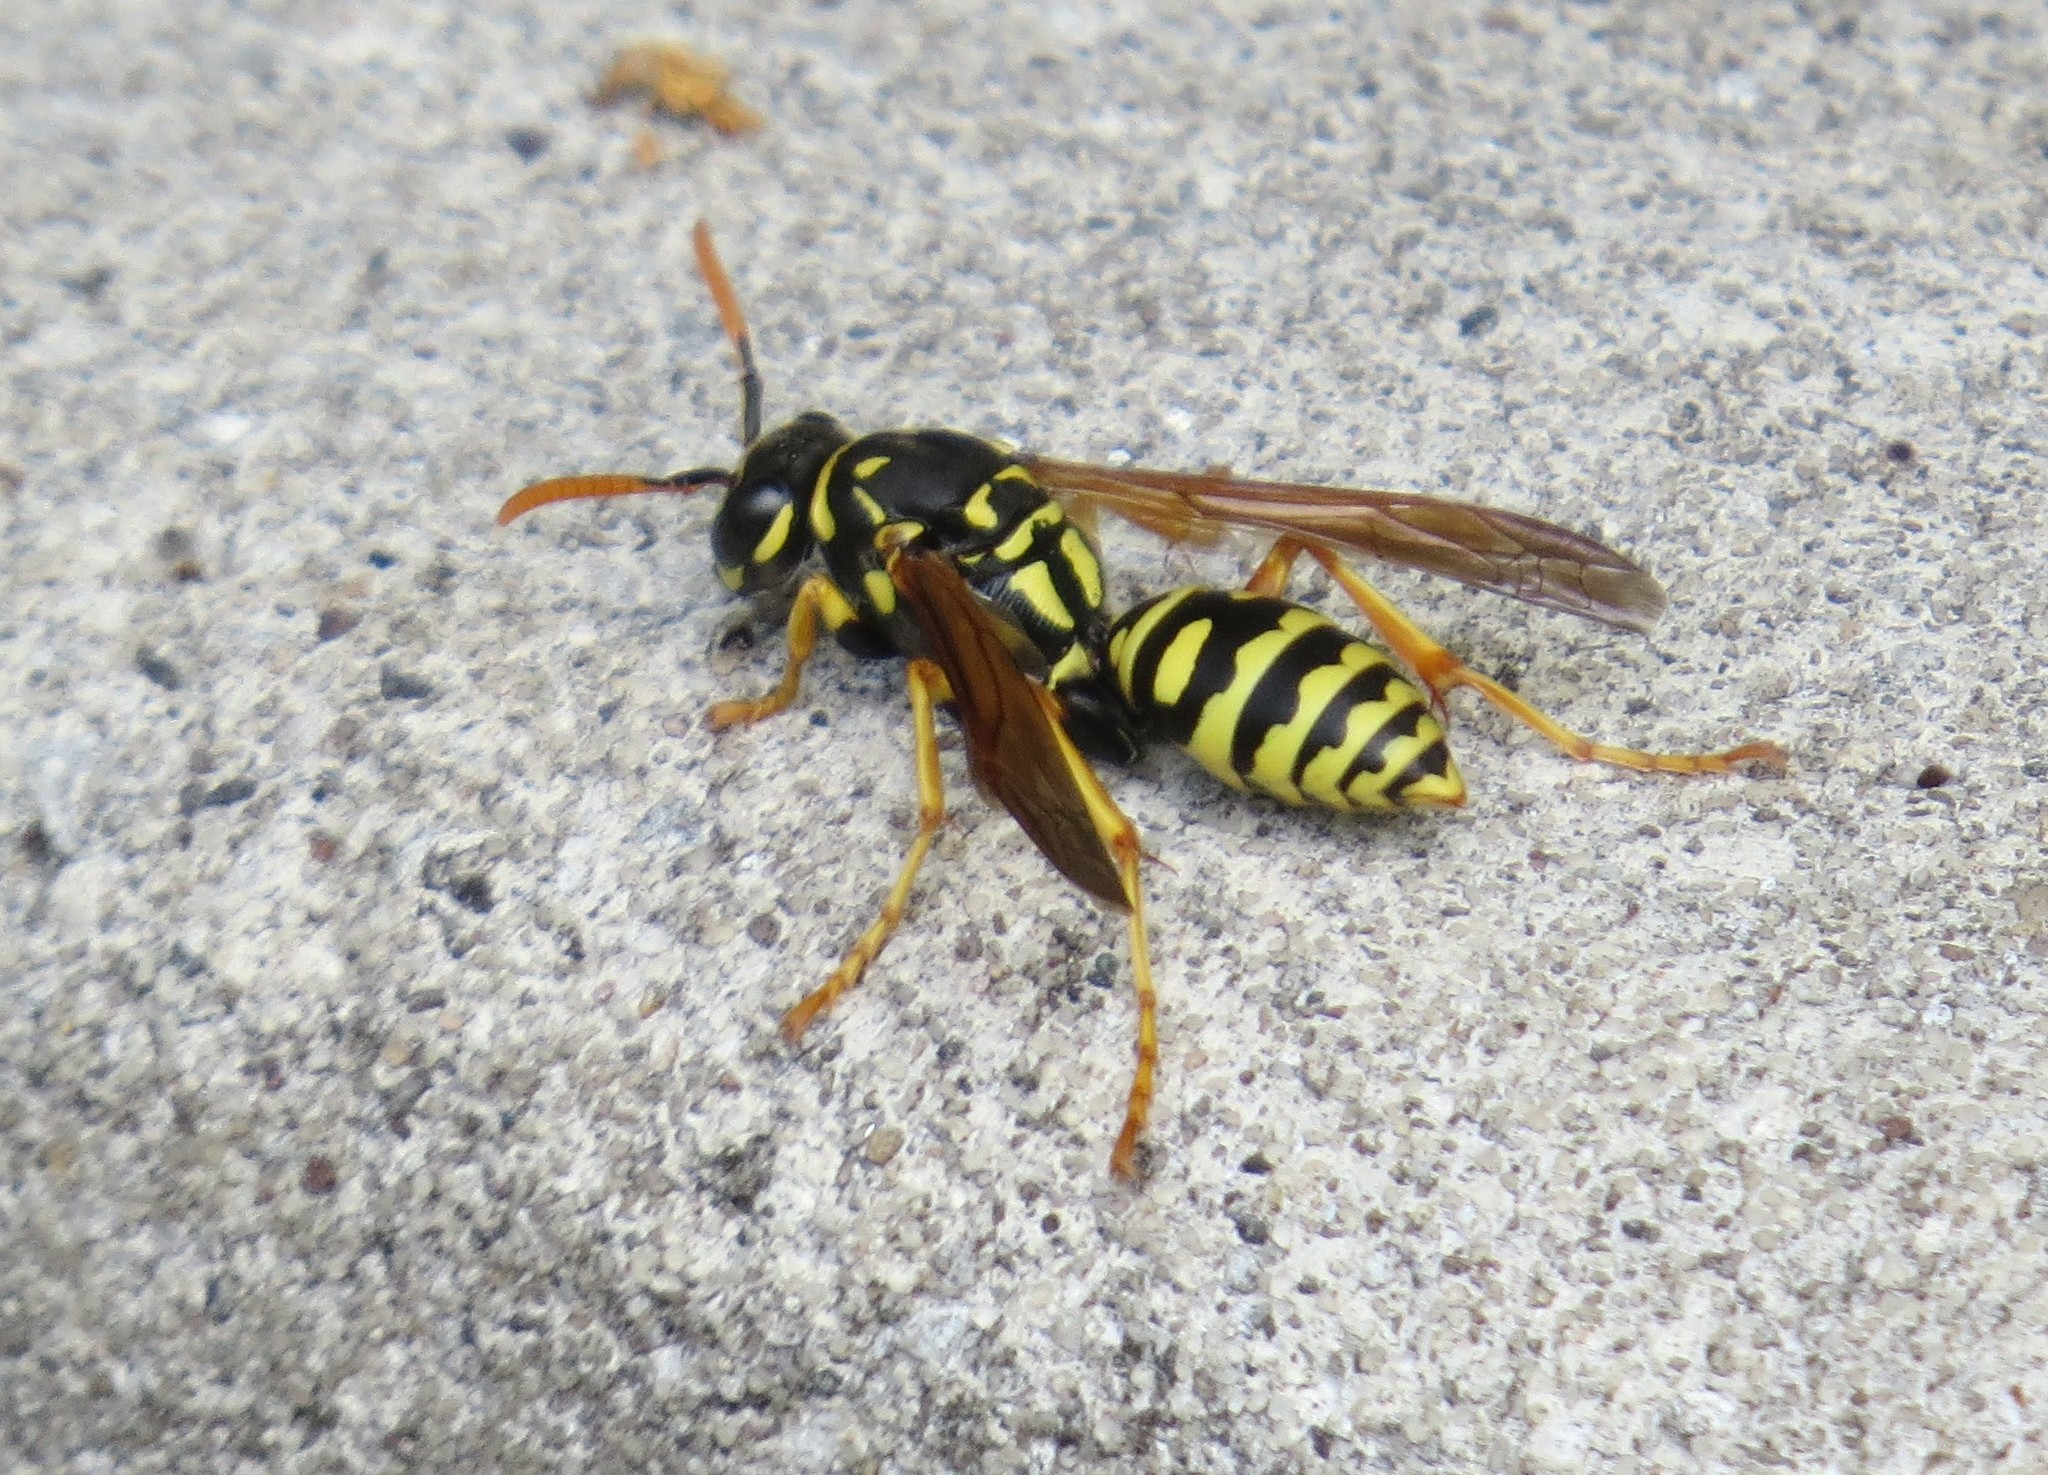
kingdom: Animalia
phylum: Arthropoda
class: Insecta
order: Hymenoptera
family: Eumenidae
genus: Polistes
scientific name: Polistes dominula
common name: Paper wasp
